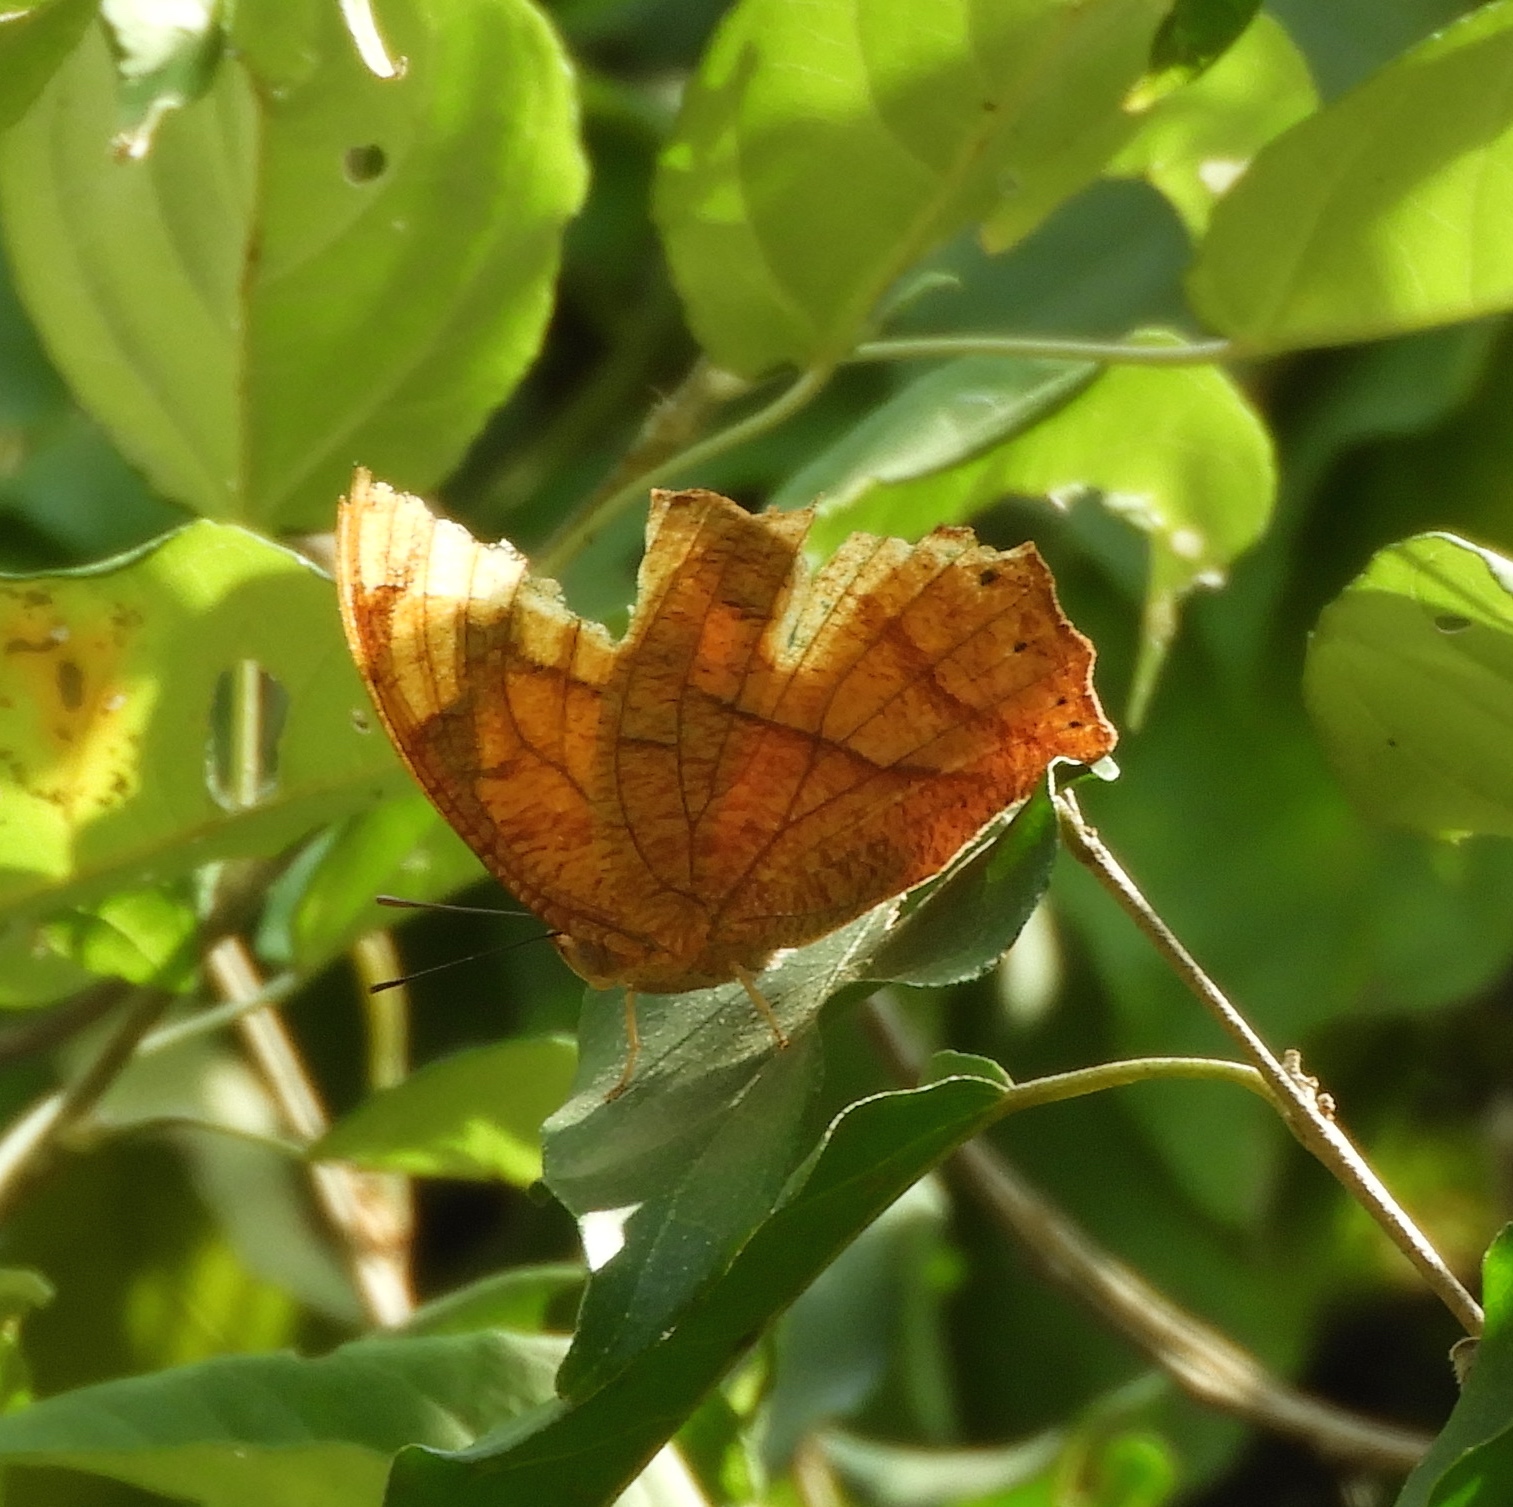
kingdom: Animalia
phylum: Arthropoda
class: Insecta
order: Lepidoptera
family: Nymphalidae
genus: Fountainea
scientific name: Fountainea
